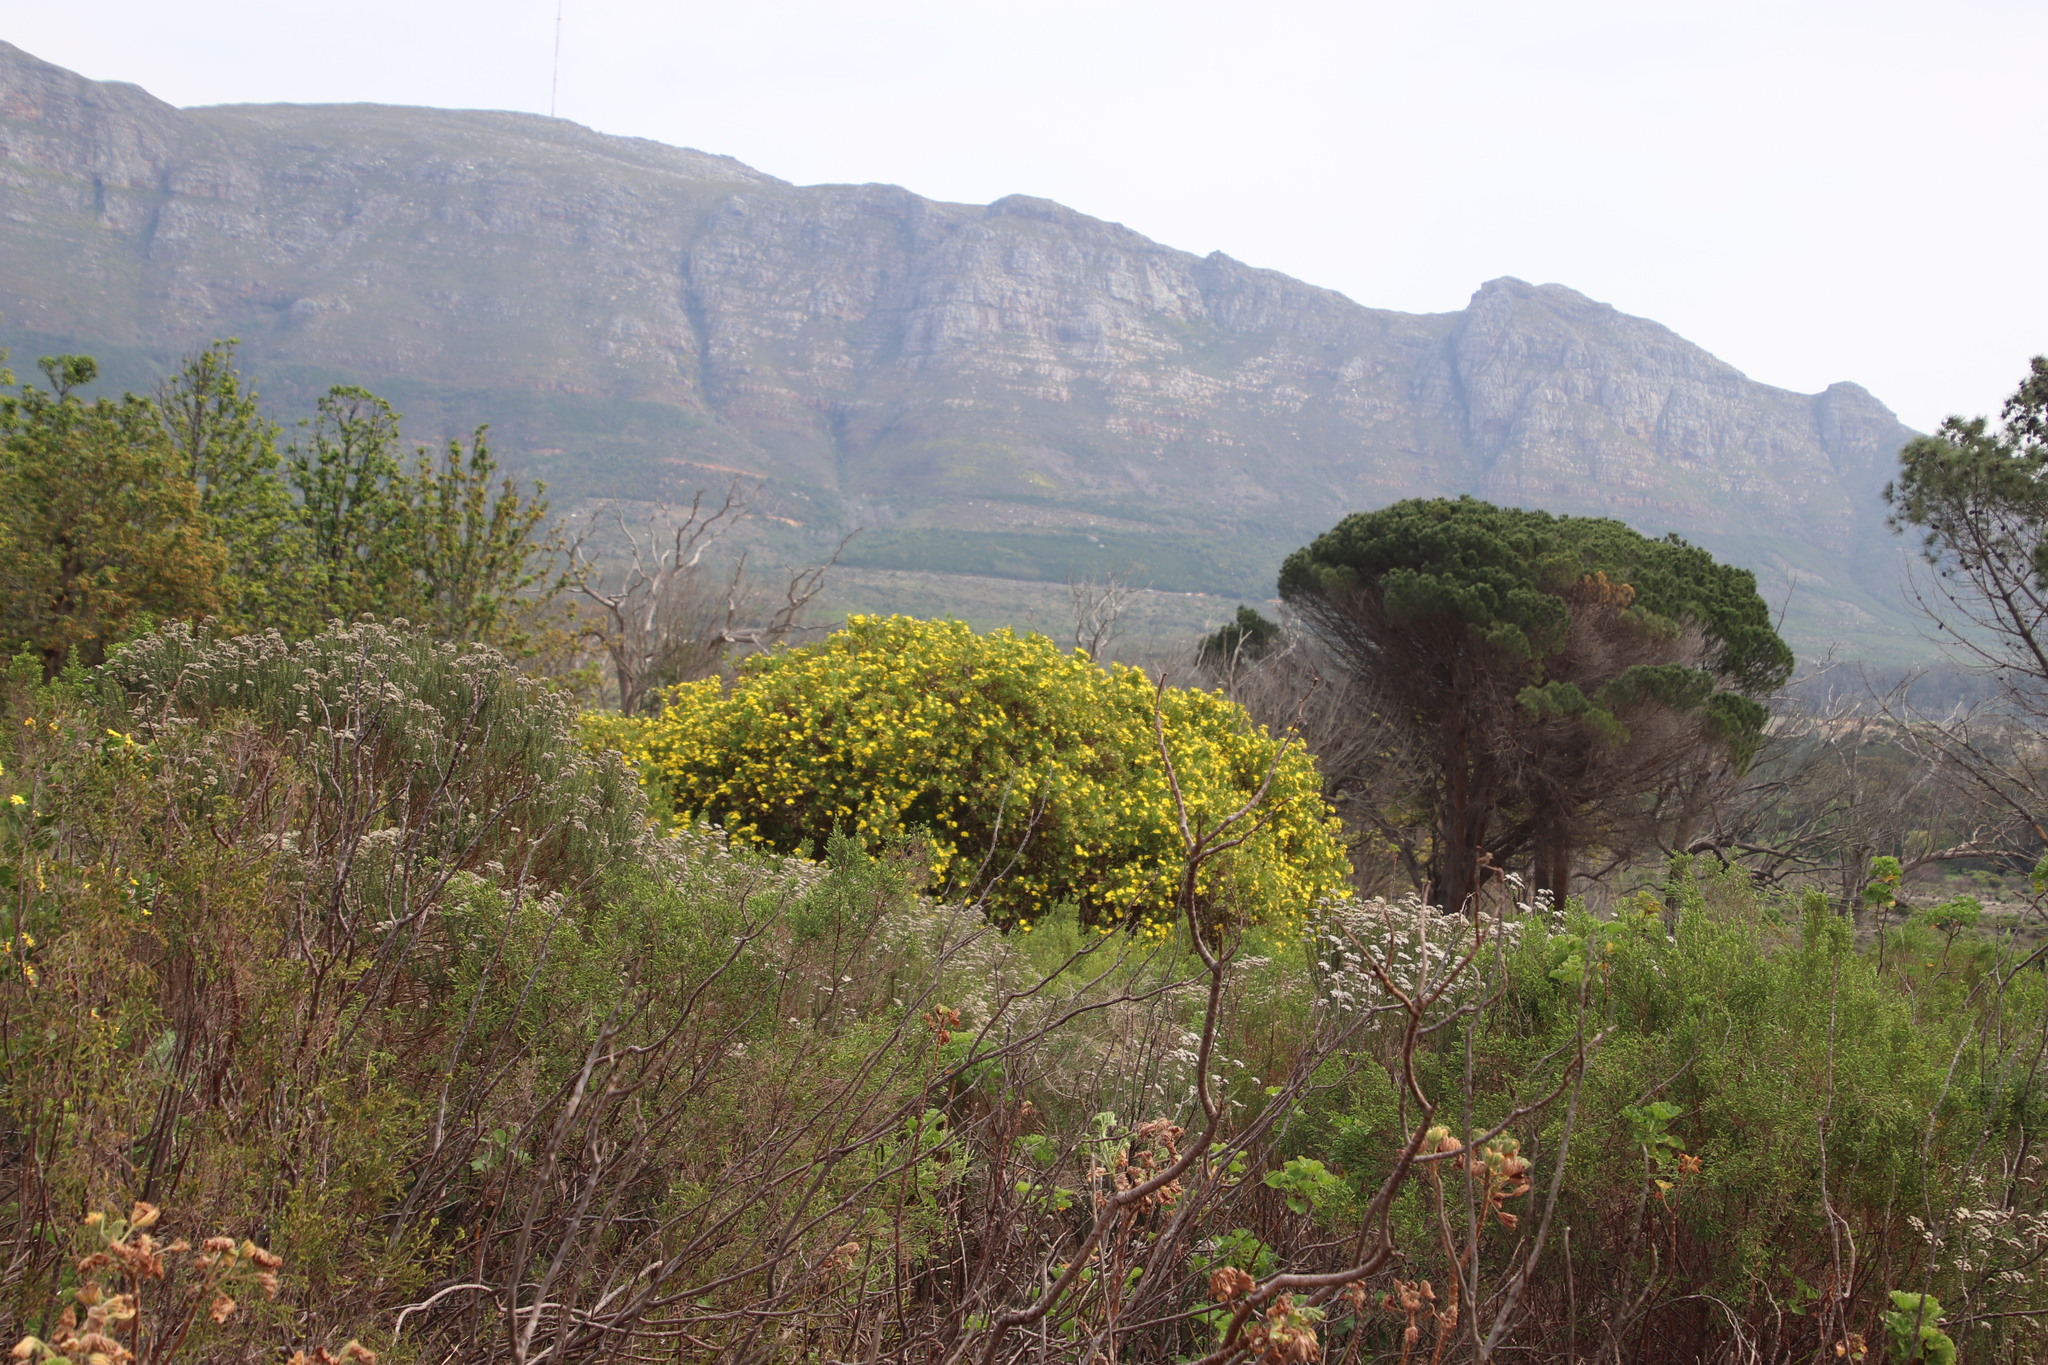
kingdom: Plantae
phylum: Tracheophyta
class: Magnoliopsida
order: Asterales
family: Asteraceae
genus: Osteospermum
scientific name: Osteospermum moniliferum
